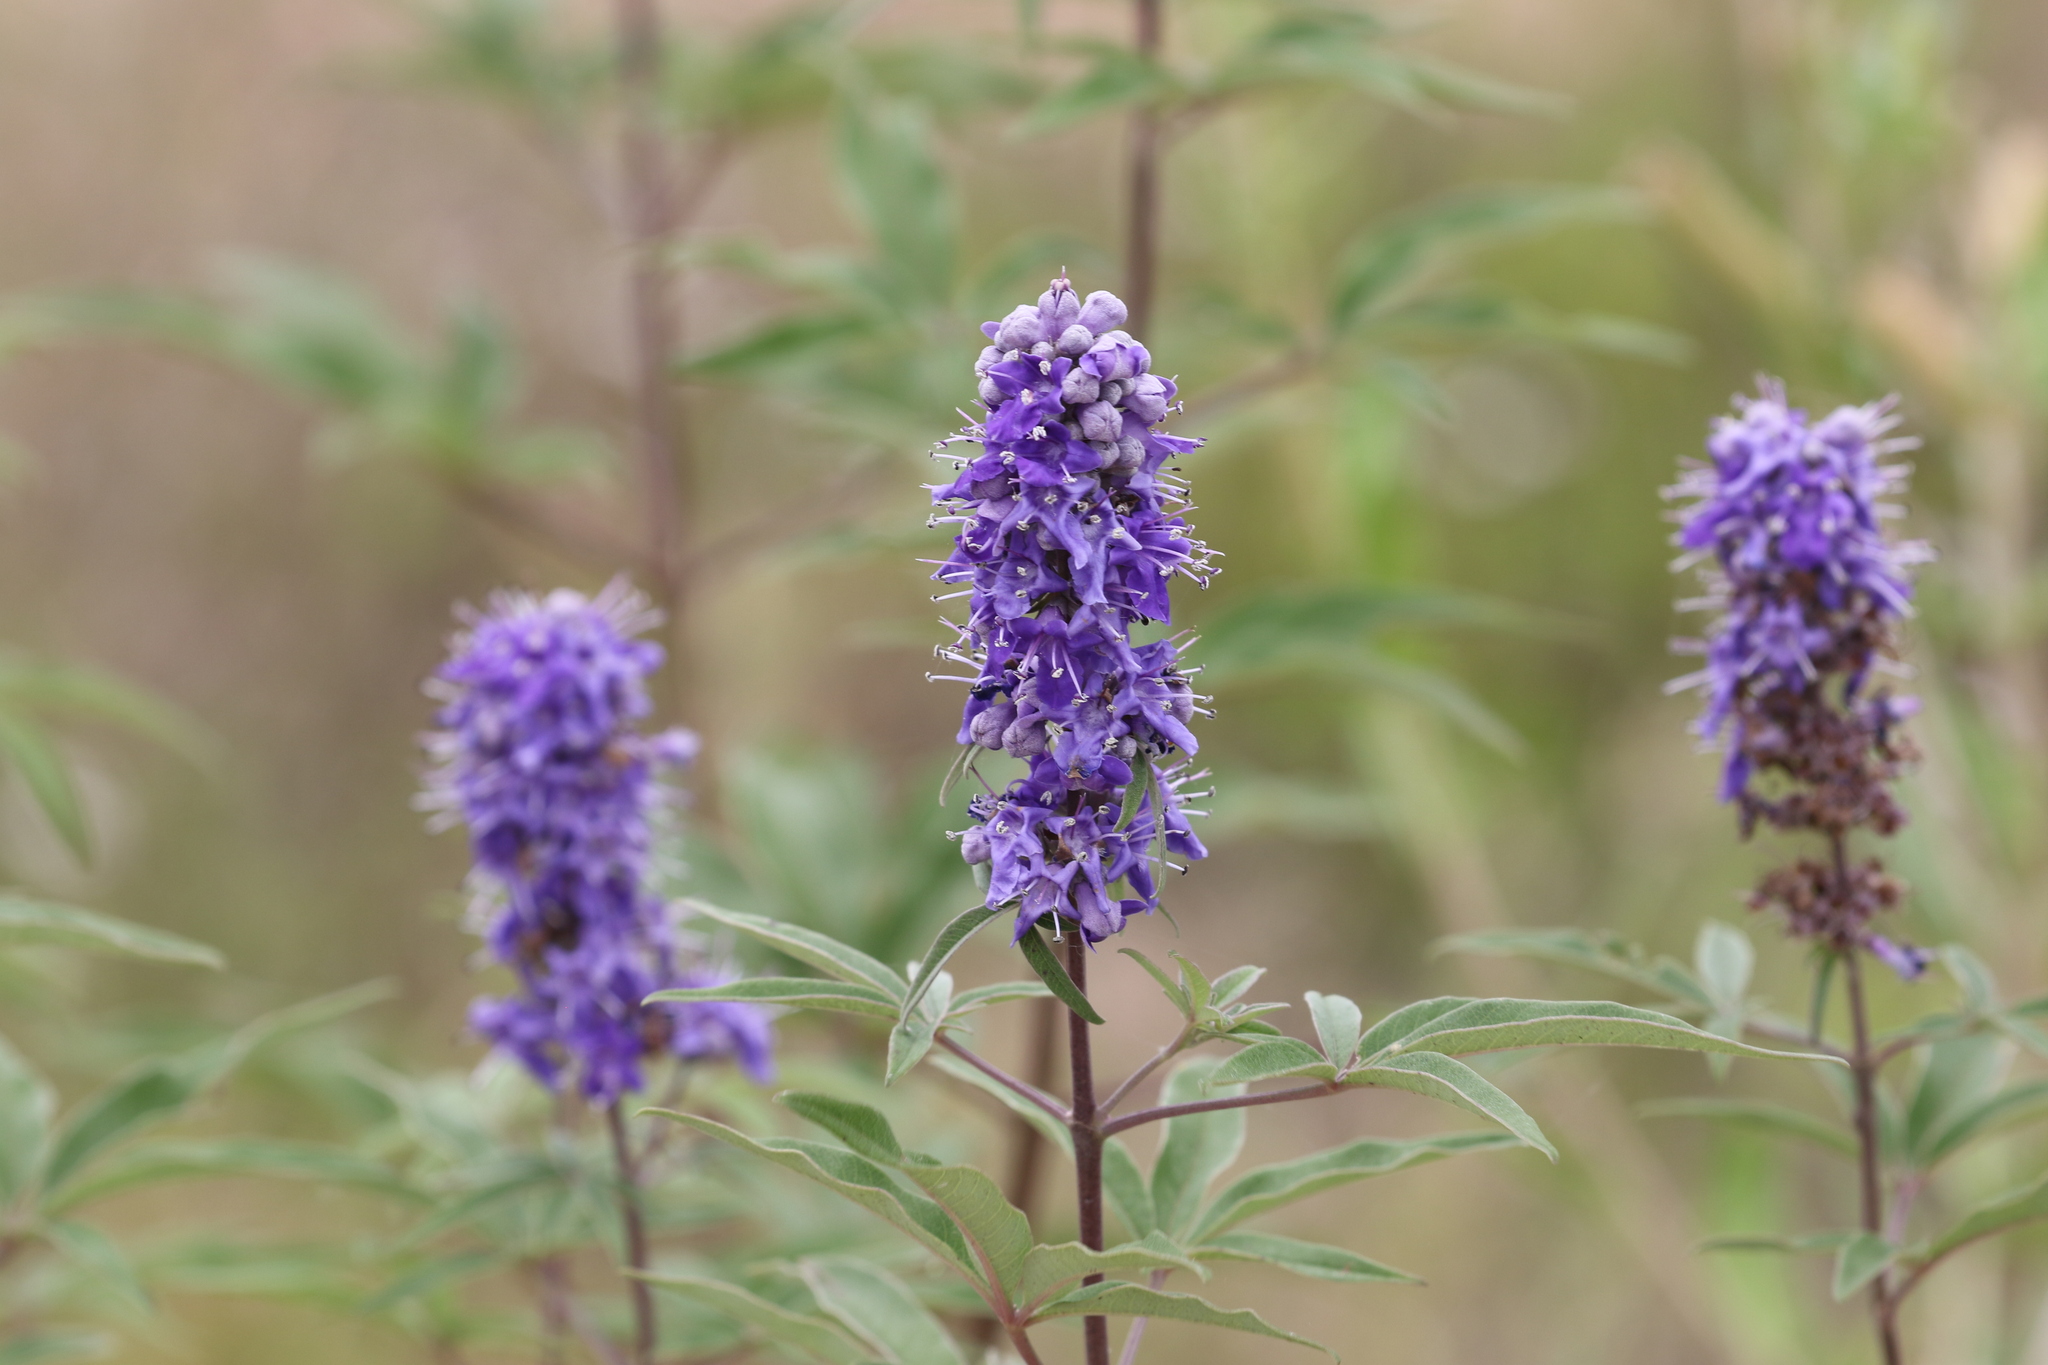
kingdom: Plantae
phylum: Tracheophyta
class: Magnoliopsida
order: Lamiales
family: Lamiaceae
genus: Vitex
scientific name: Vitex agnus-castus
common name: Chasteberry
